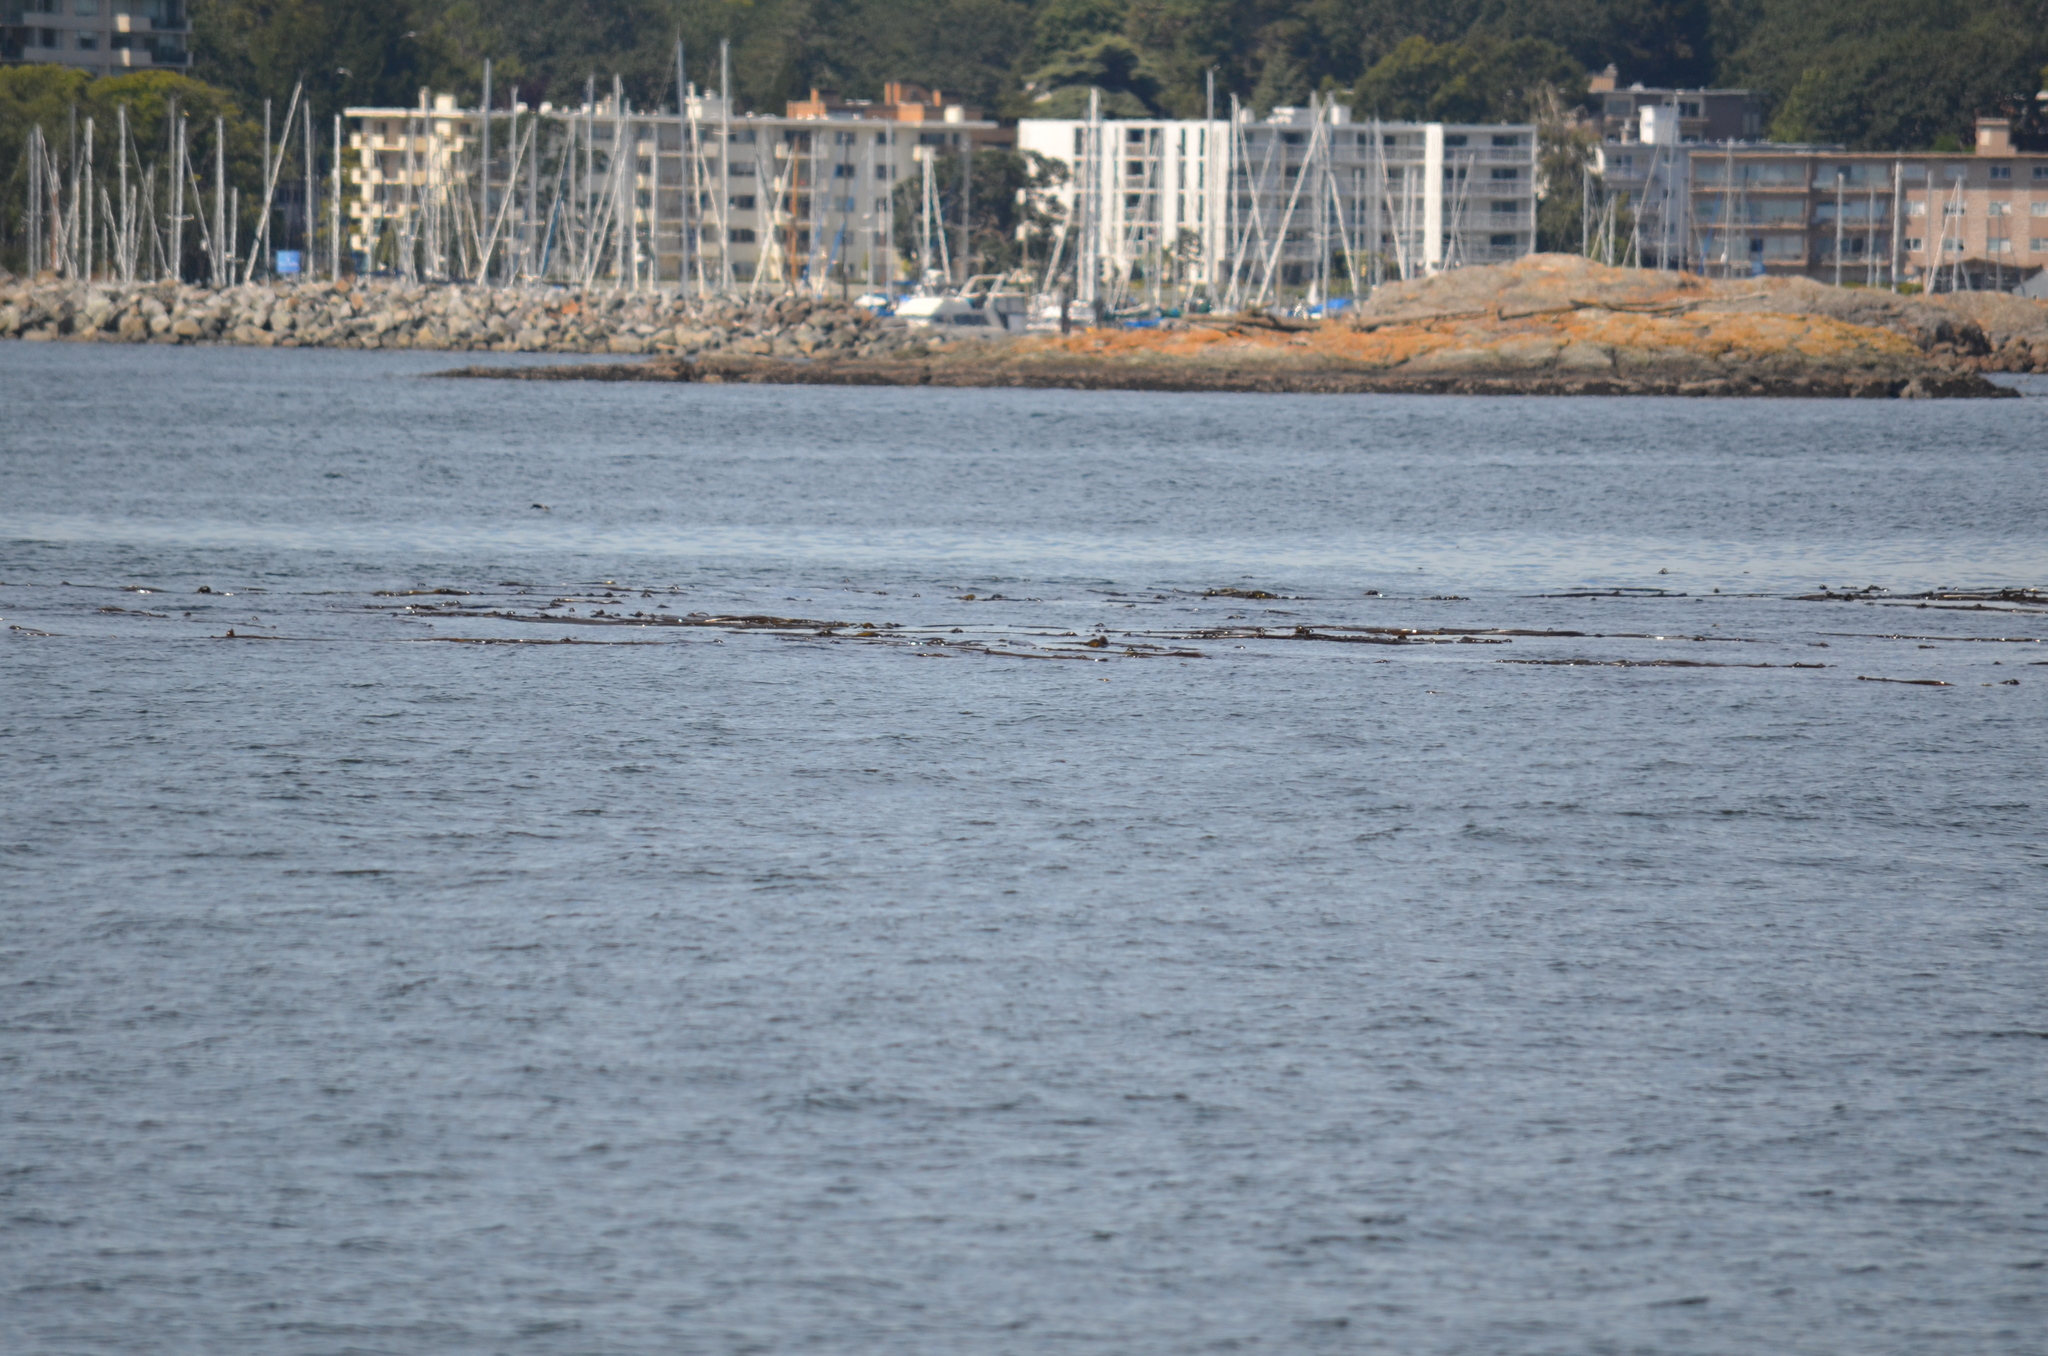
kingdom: Chromista
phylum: Ochrophyta
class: Phaeophyceae
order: Laminariales
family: Laminariaceae
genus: Nereocystis
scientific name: Nereocystis luetkeana
